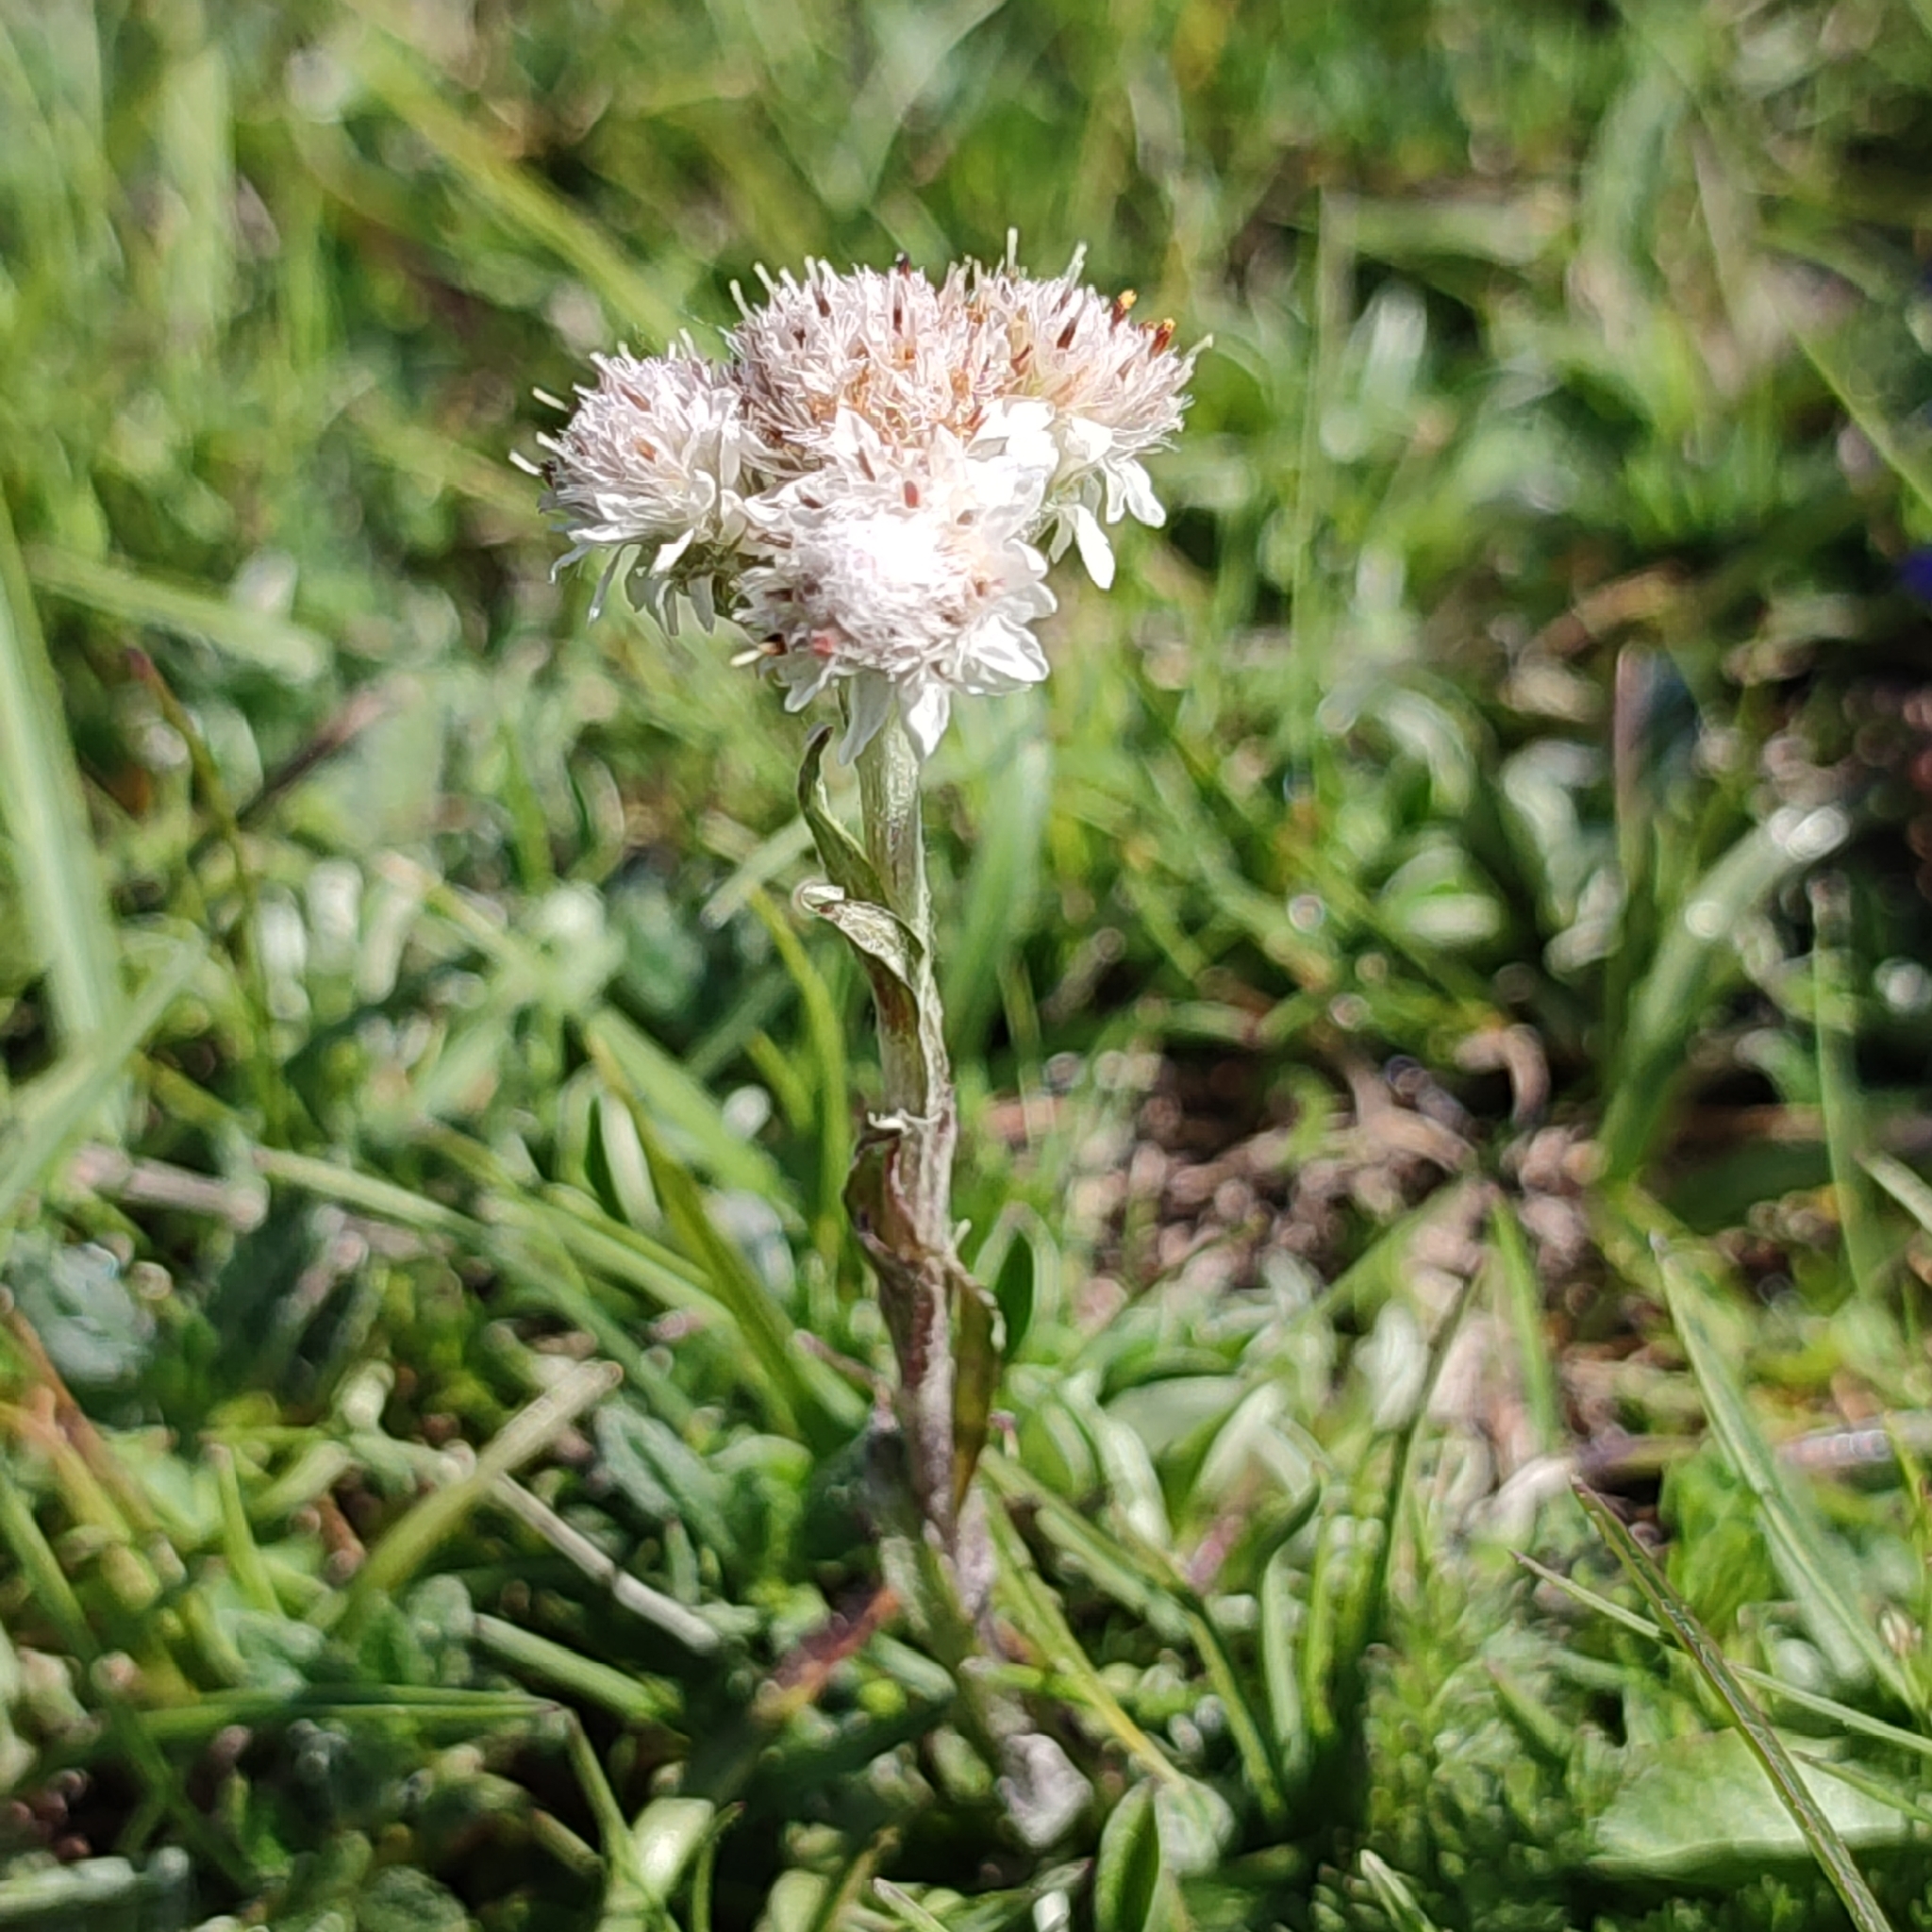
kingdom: Plantae
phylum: Tracheophyta
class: Magnoliopsida
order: Asterales
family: Asteraceae
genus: Antennaria
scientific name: Antennaria dioica
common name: Mountain everlasting
